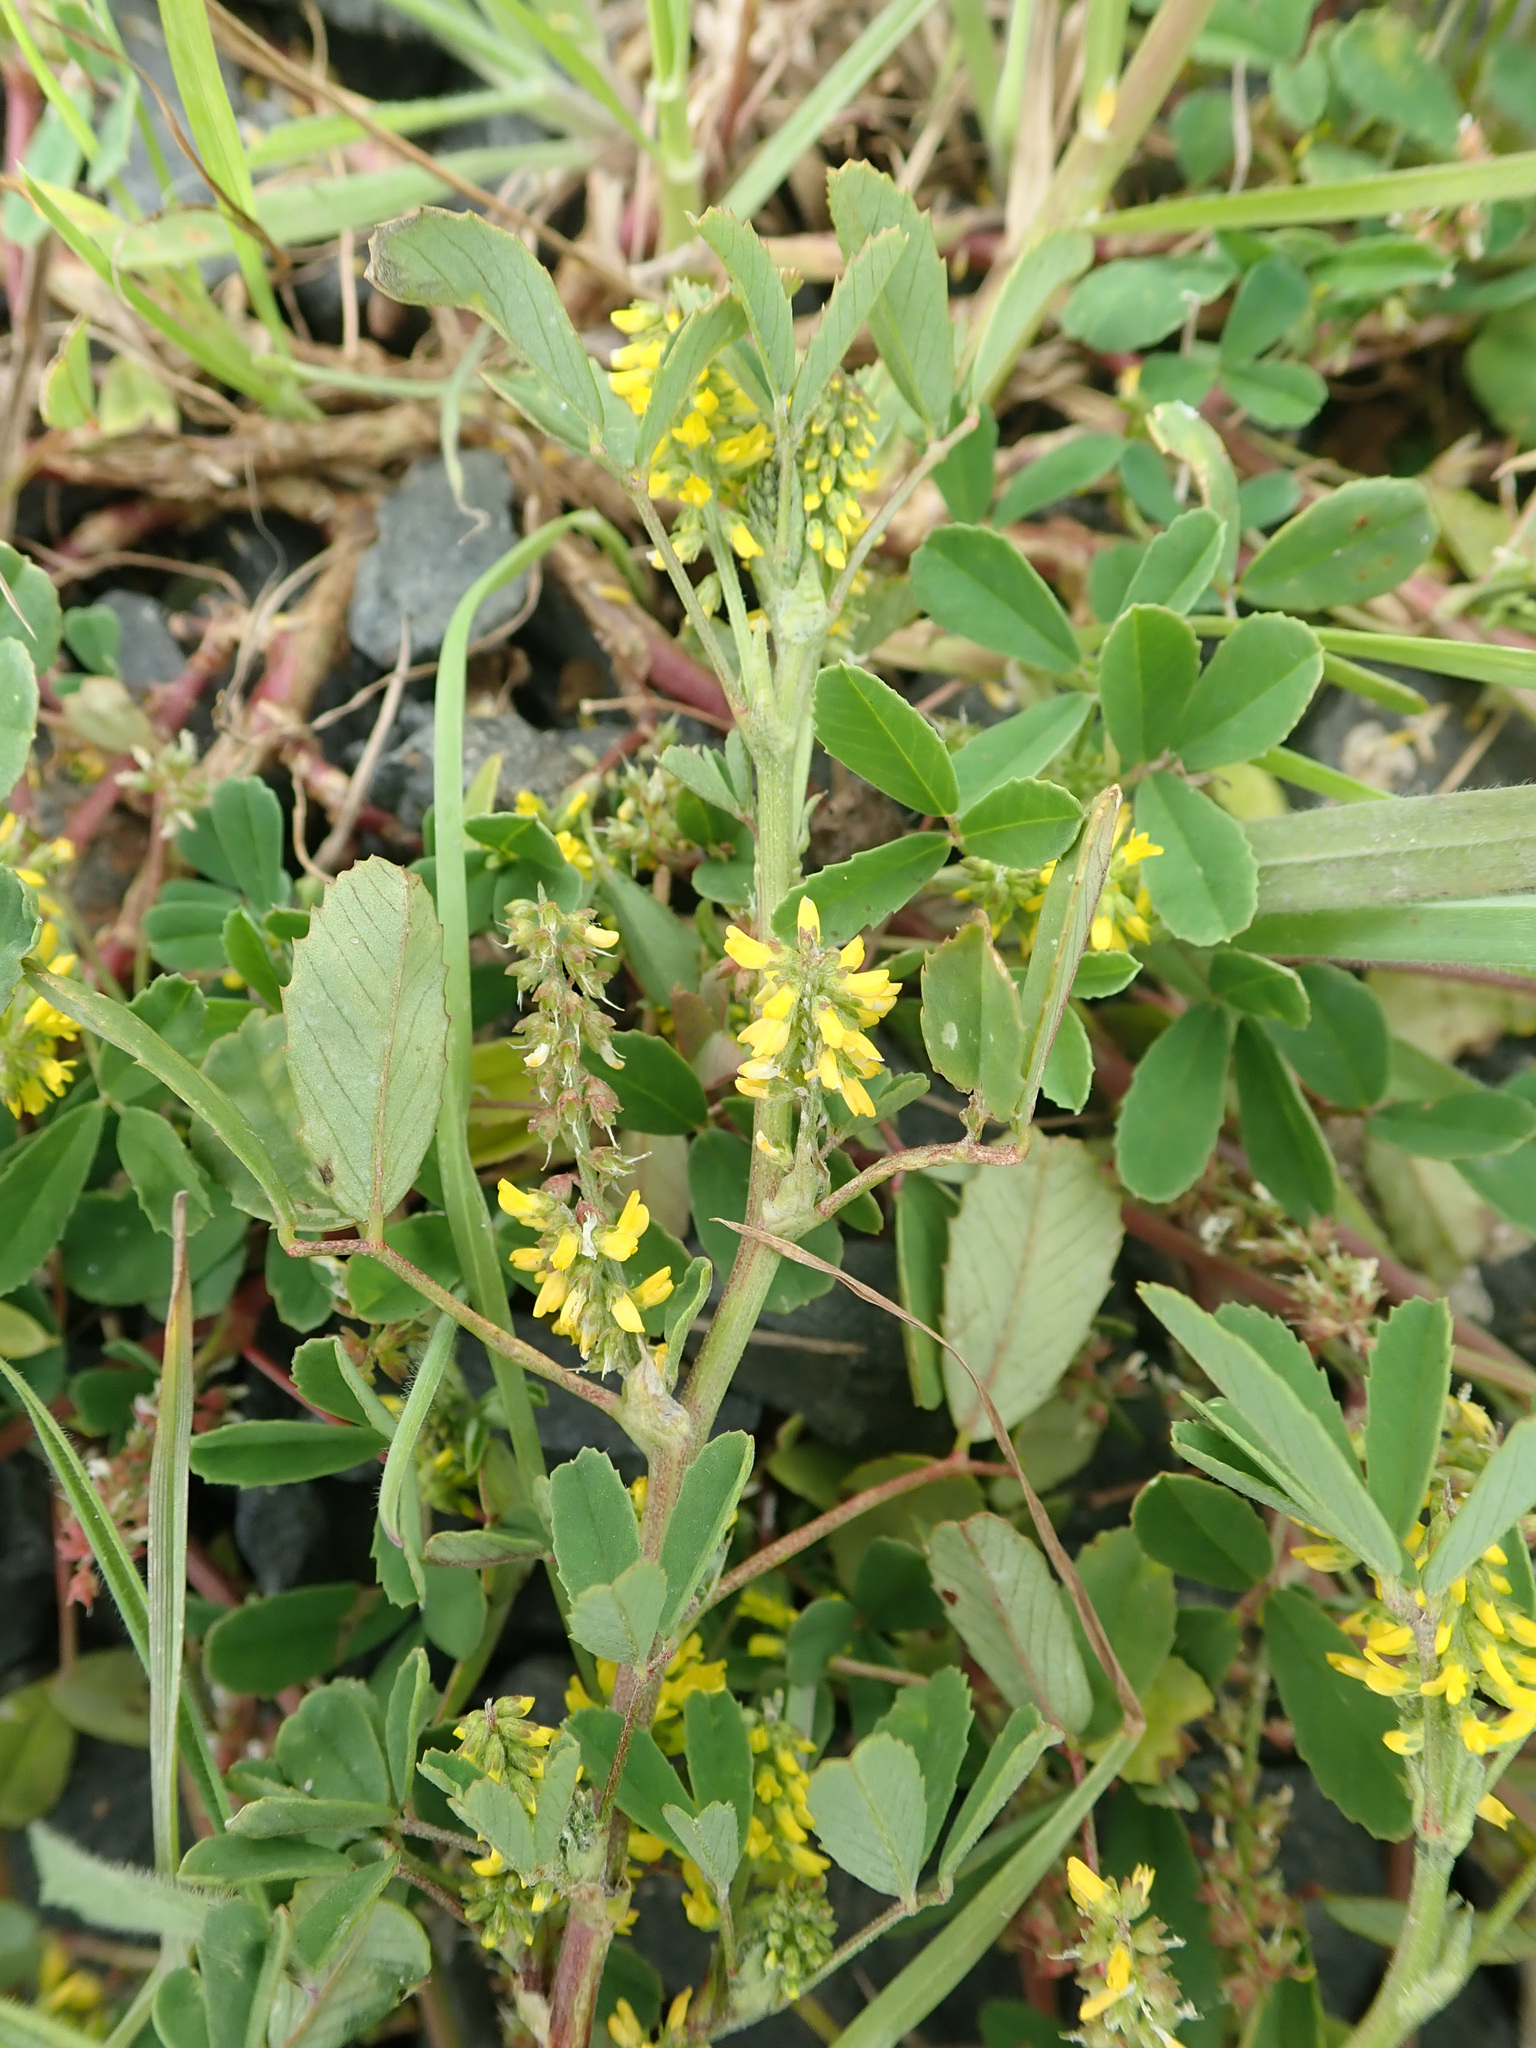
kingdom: Plantae
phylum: Tracheophyta
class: Magnoliopsida
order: Fabales
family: Fabaceae
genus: Melilotus
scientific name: Melilotus indicus
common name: Small melilot
